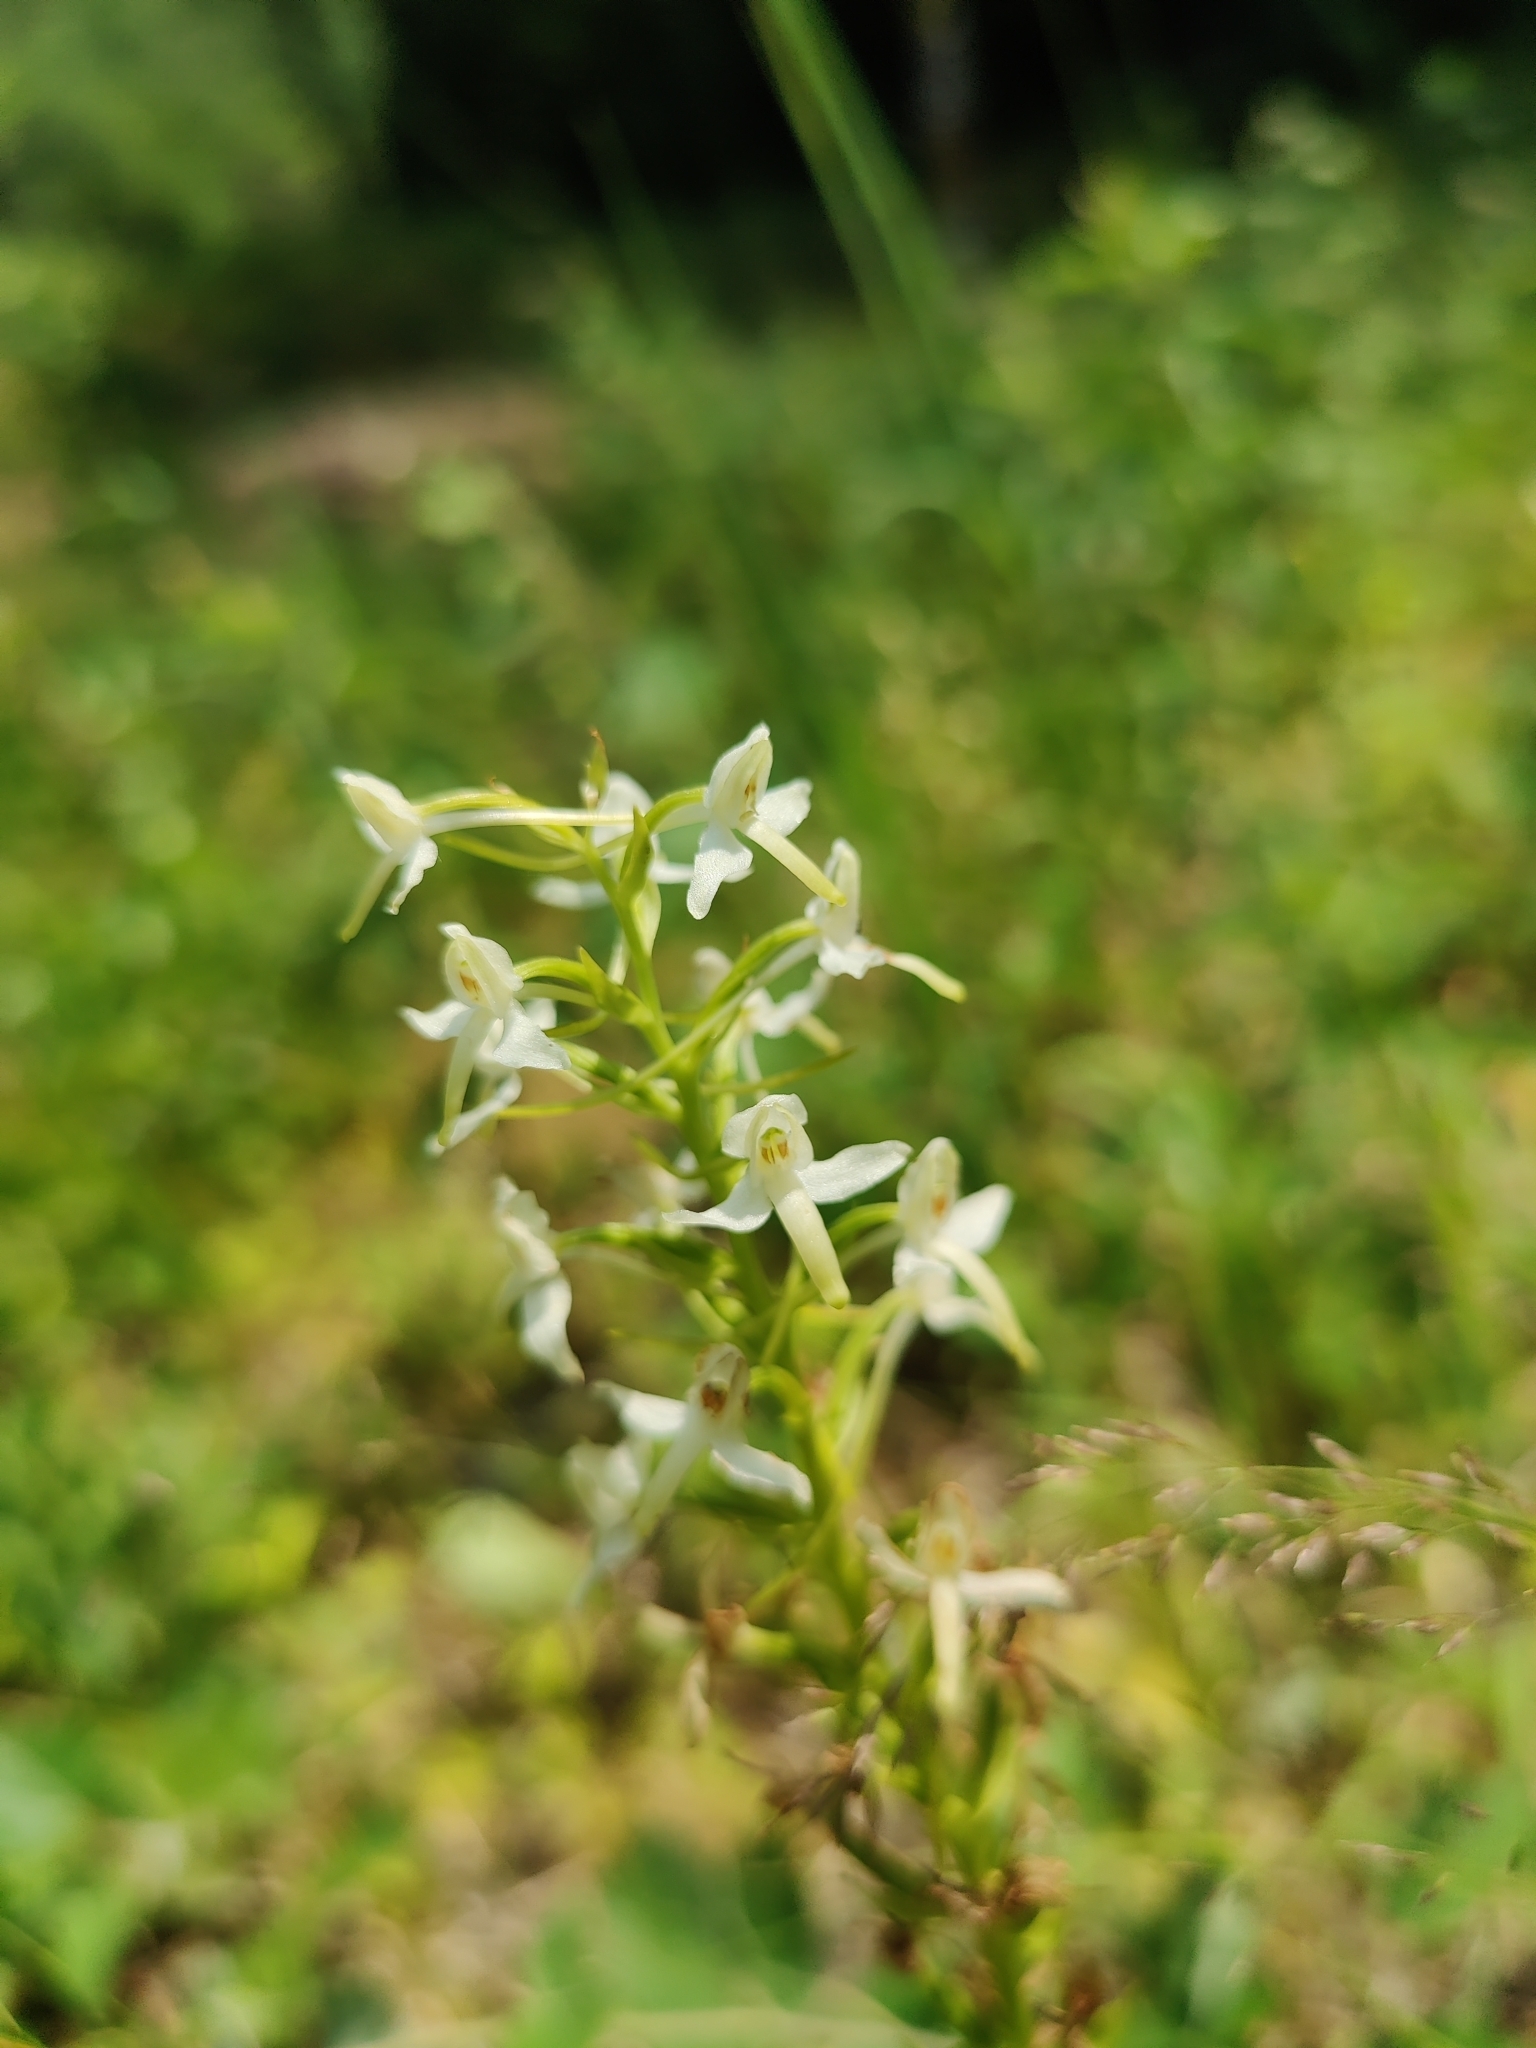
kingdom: Plantae
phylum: Tracheophyta
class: Liliopsida
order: Asparagales
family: Orchidaceae
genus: Platanthera
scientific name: Platanthera bifolia
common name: Lesser butterfly-orchid
